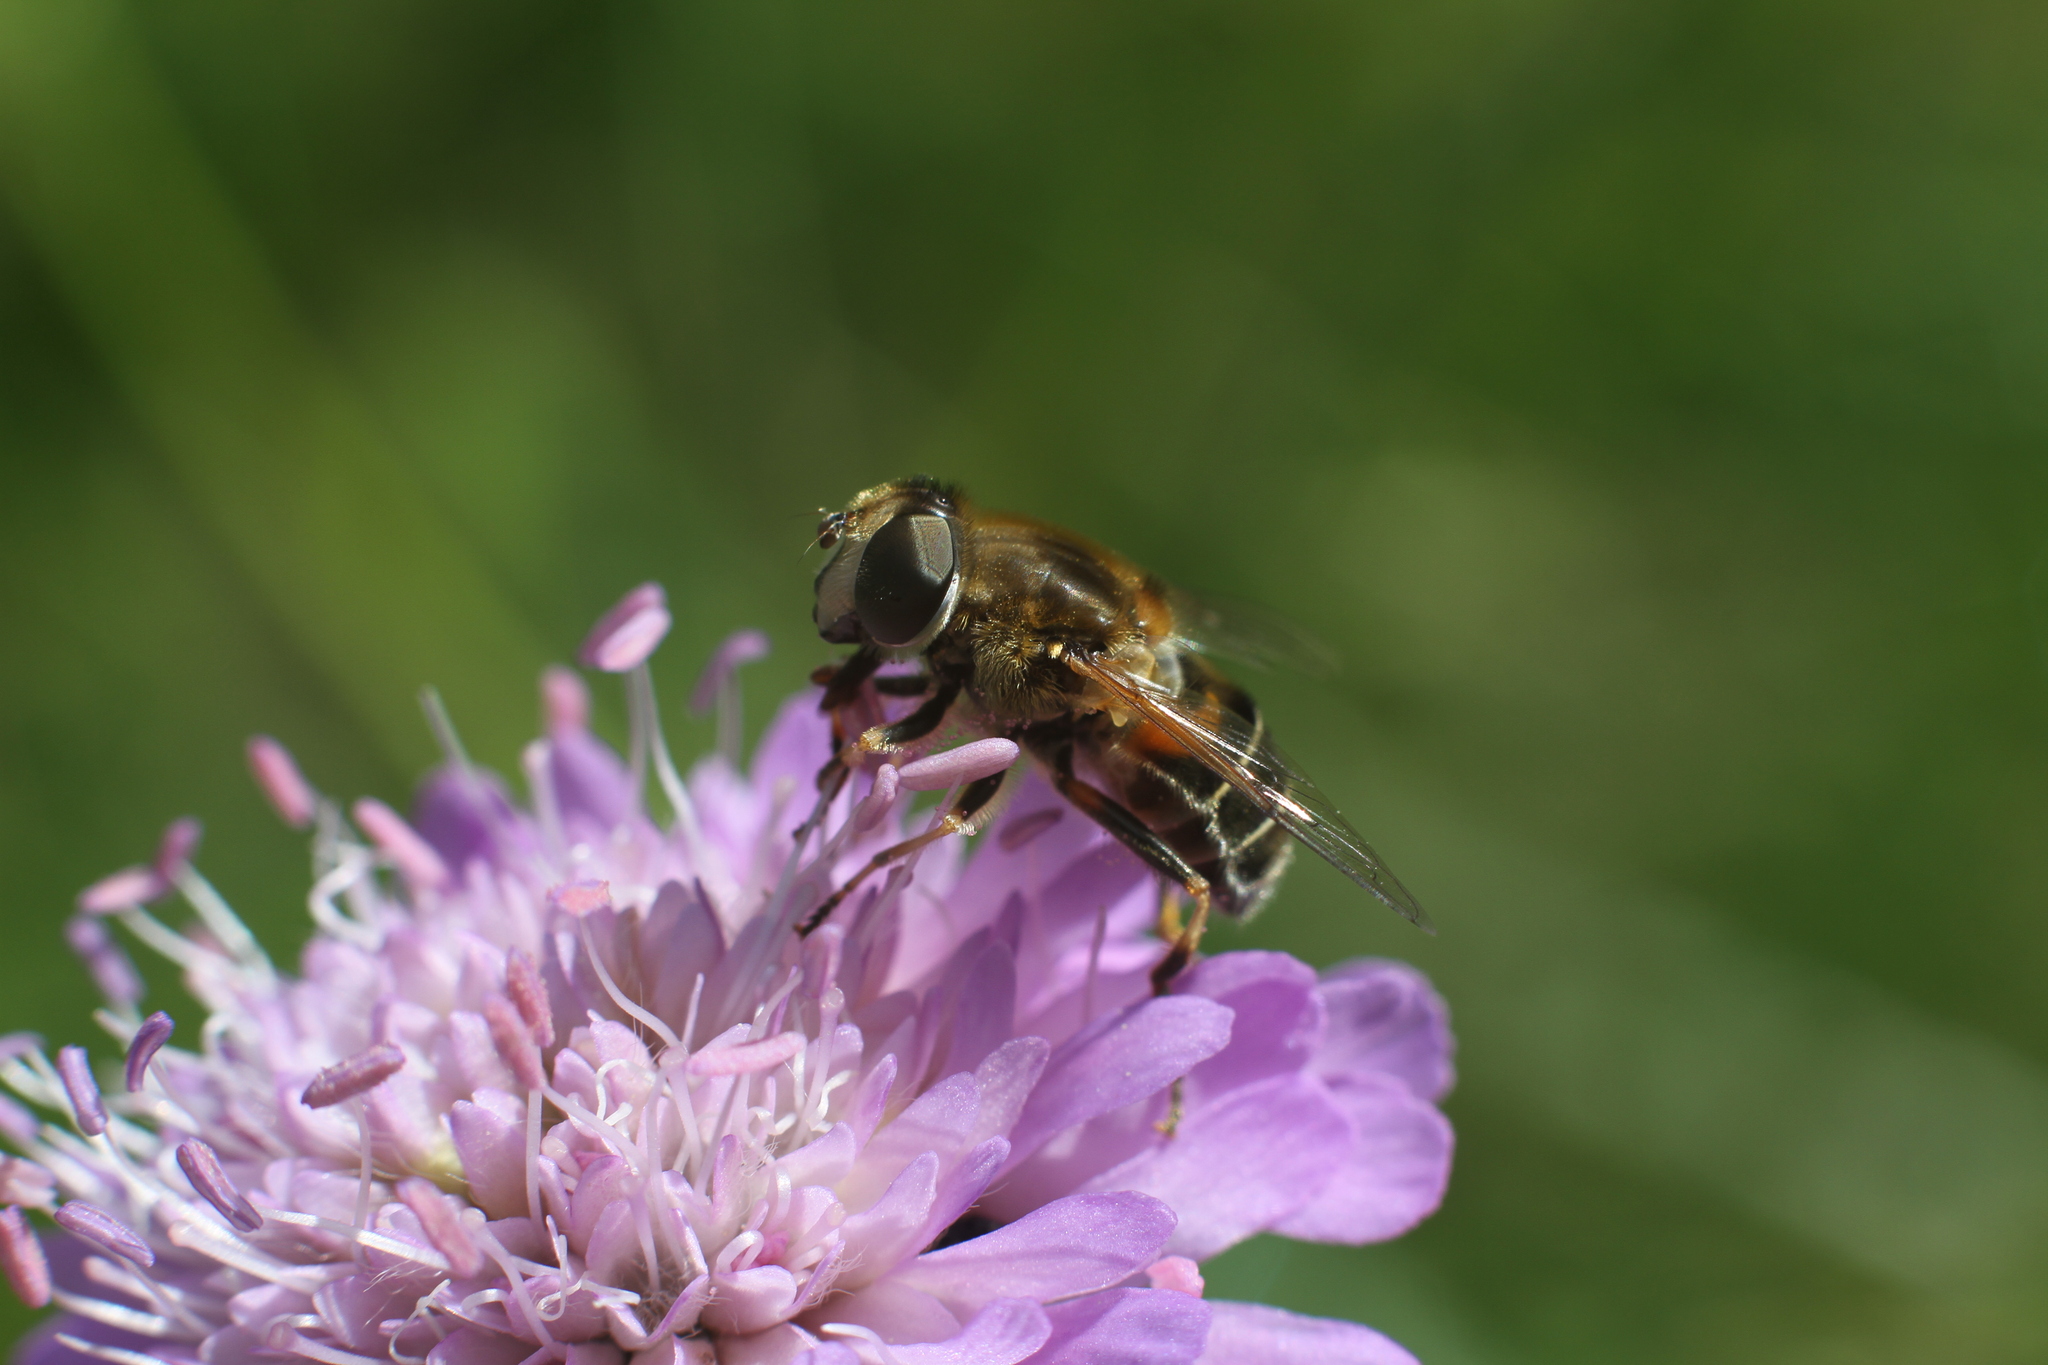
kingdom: Animalia
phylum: Arthropoda
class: Insecta
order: Diptera
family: Syrphidae
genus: Eristalis
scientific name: Eristalis nemorum
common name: Orange-spined drone fly
